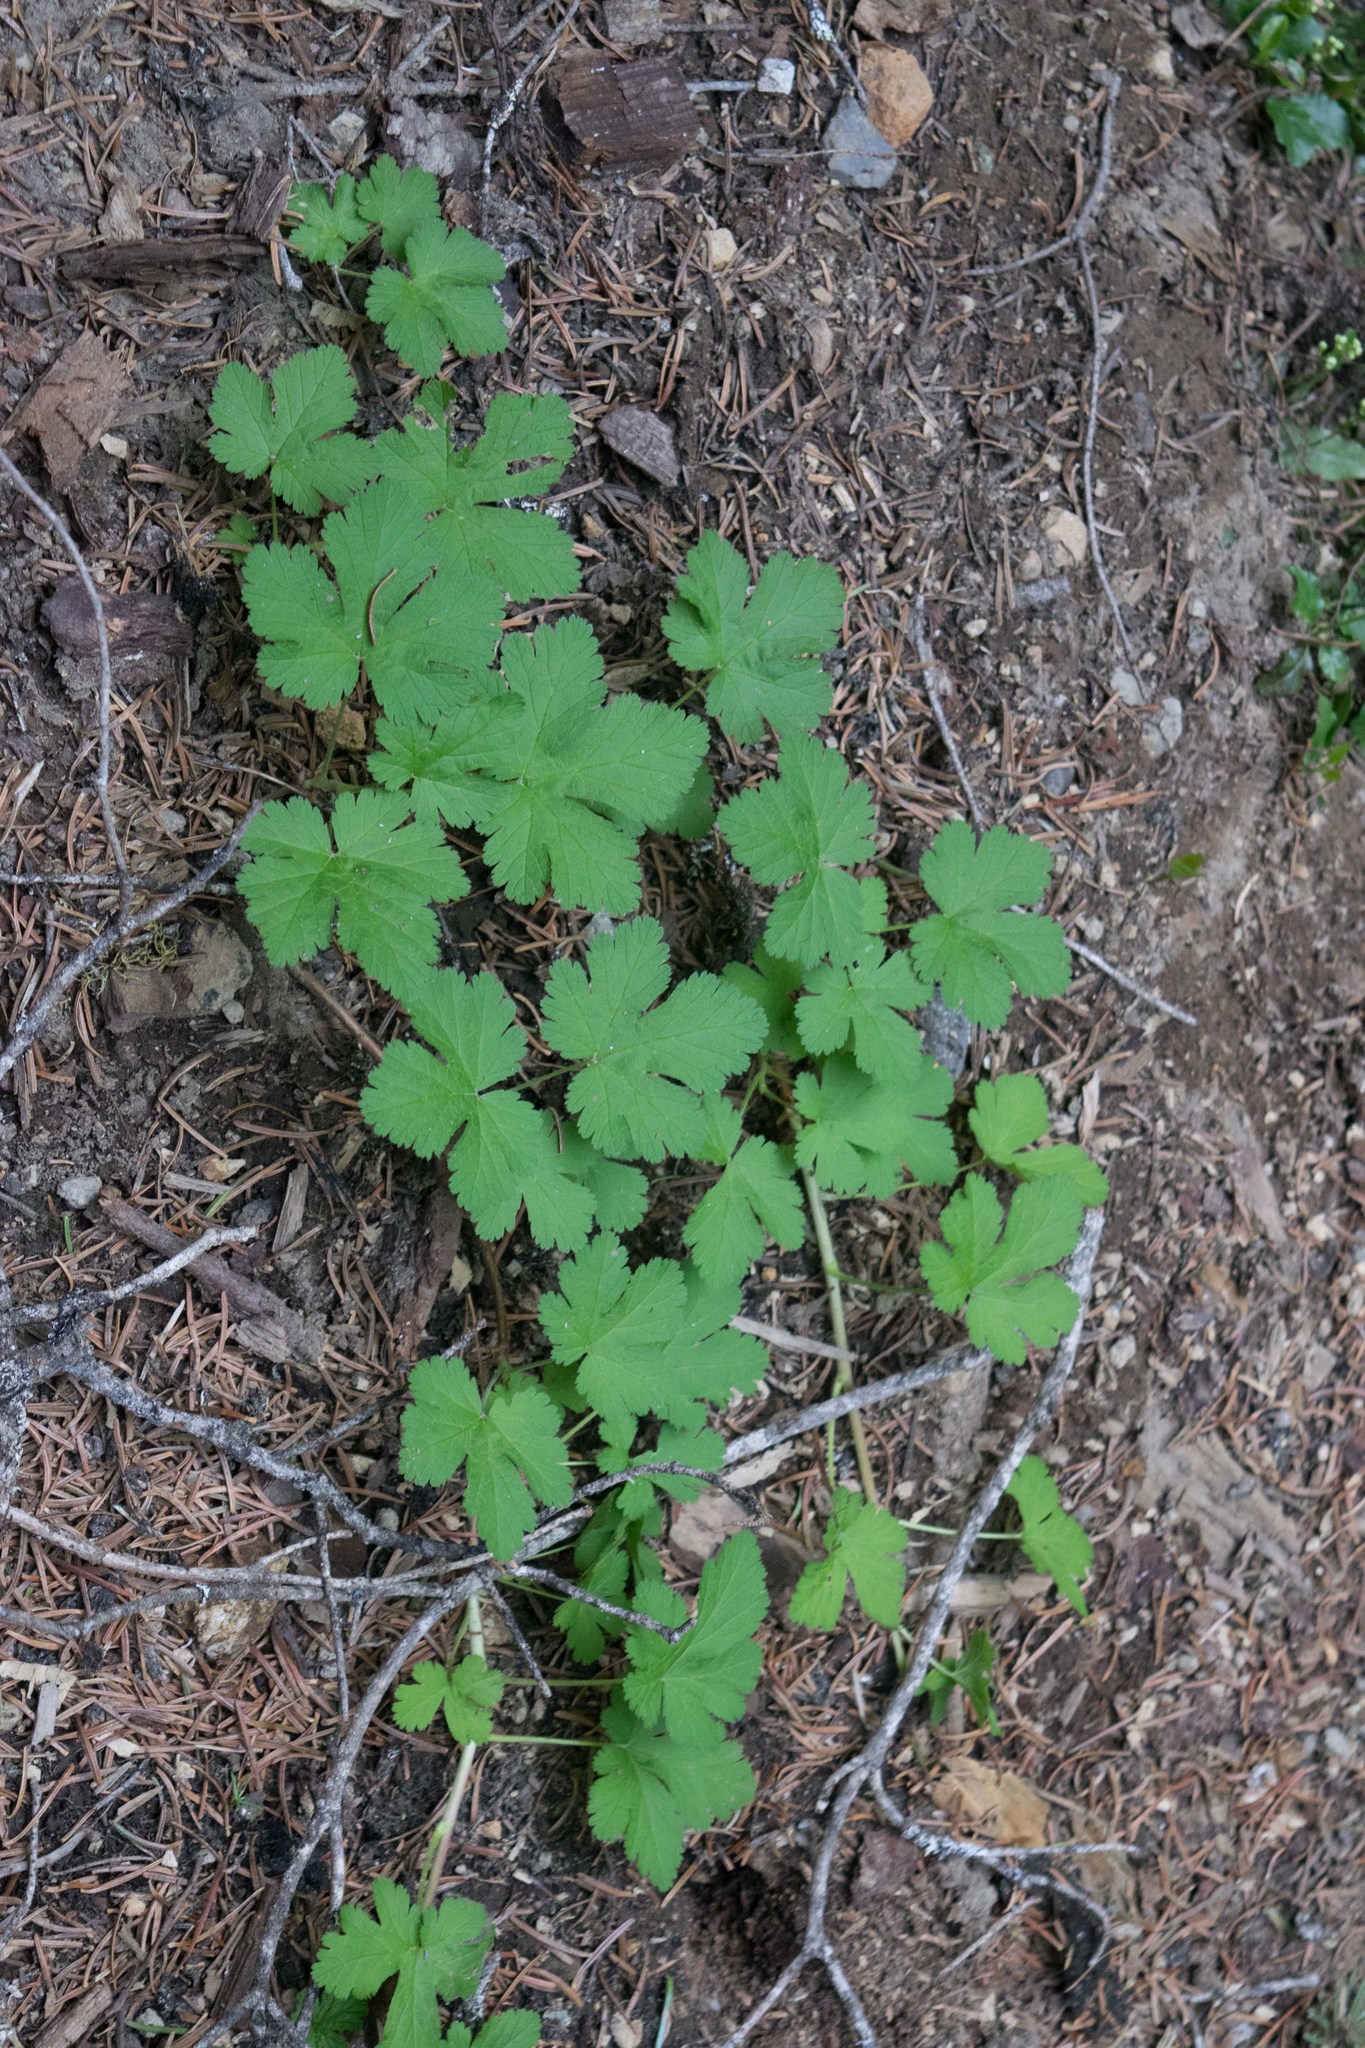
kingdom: Plantae
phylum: Tracheophyta
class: Magnoliopsida
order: Saxifragales
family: Grossulariaceae
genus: Ribes
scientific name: Ribes erythrocarpum
